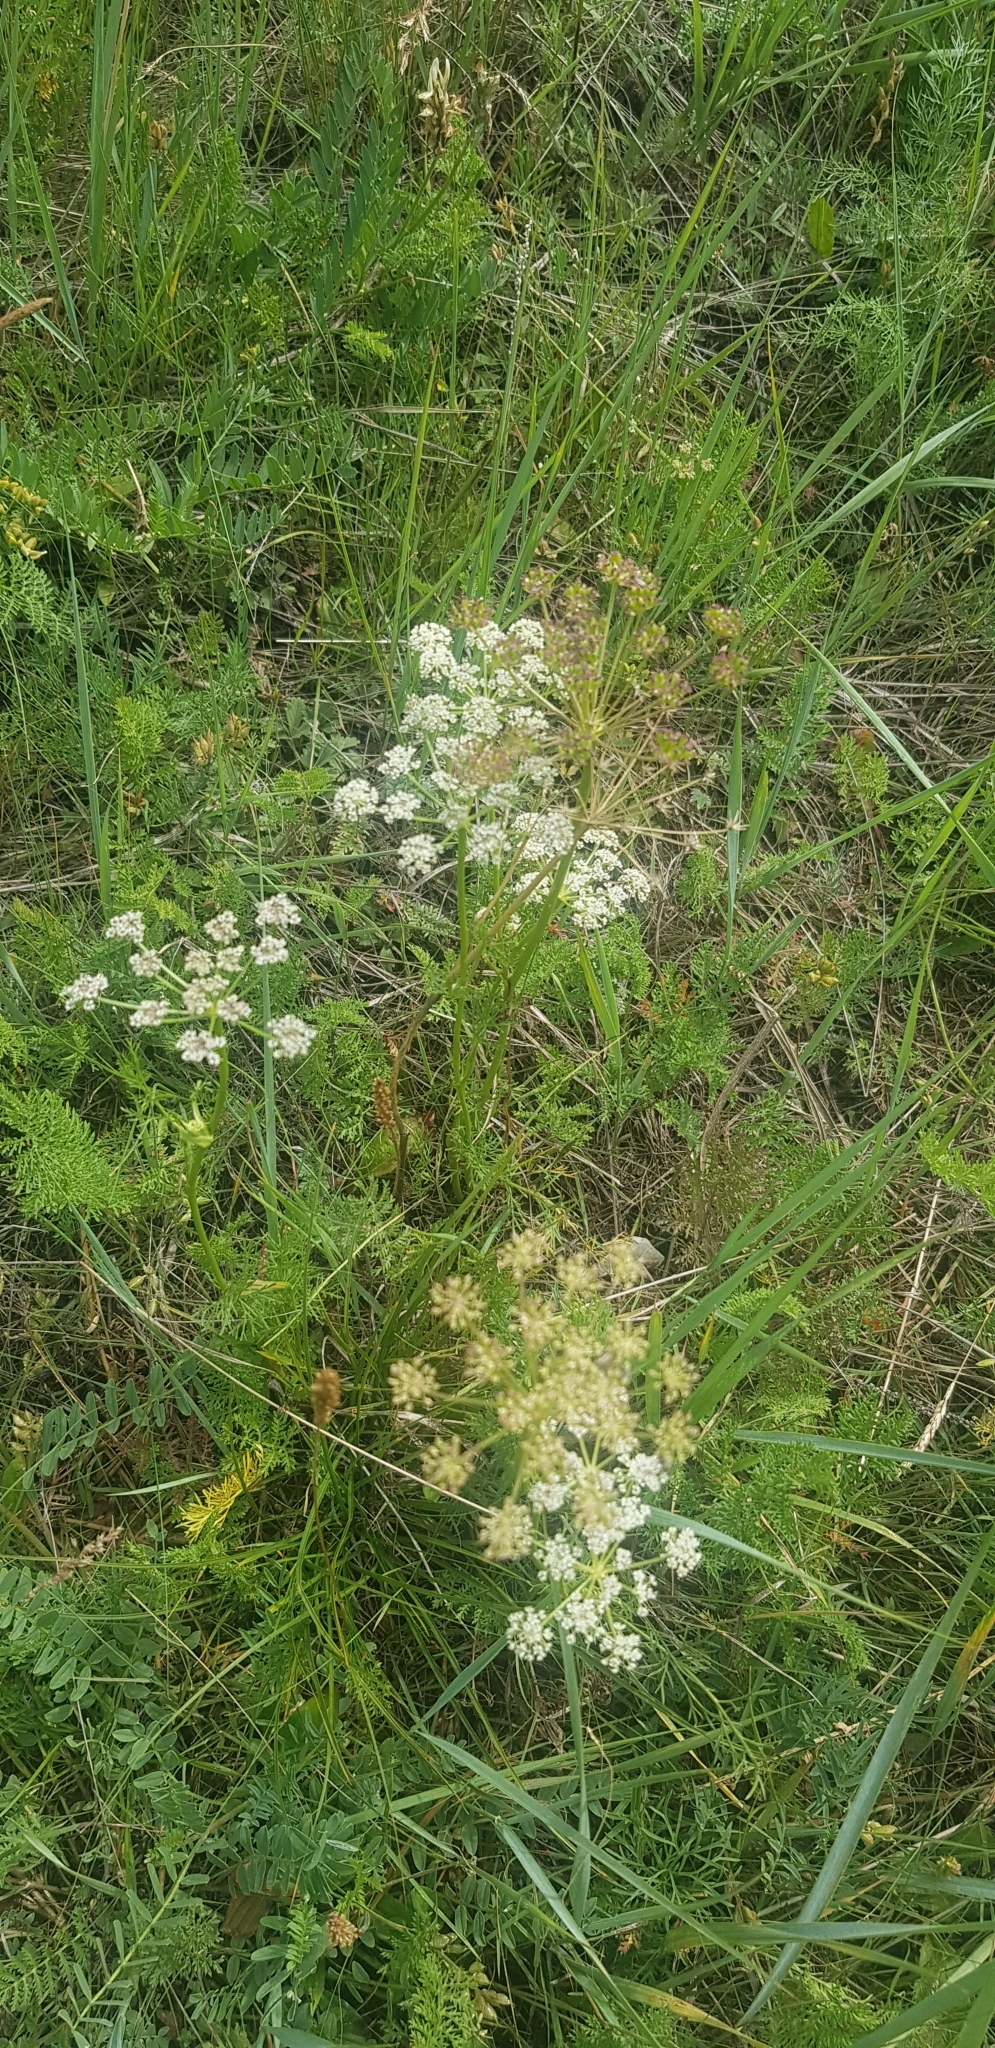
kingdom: Plantae
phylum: Tracheophyta
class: Magnoliopsida
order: Apiales
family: Apiaceae
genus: Kitagawia
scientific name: Kitagawia baicalensis
